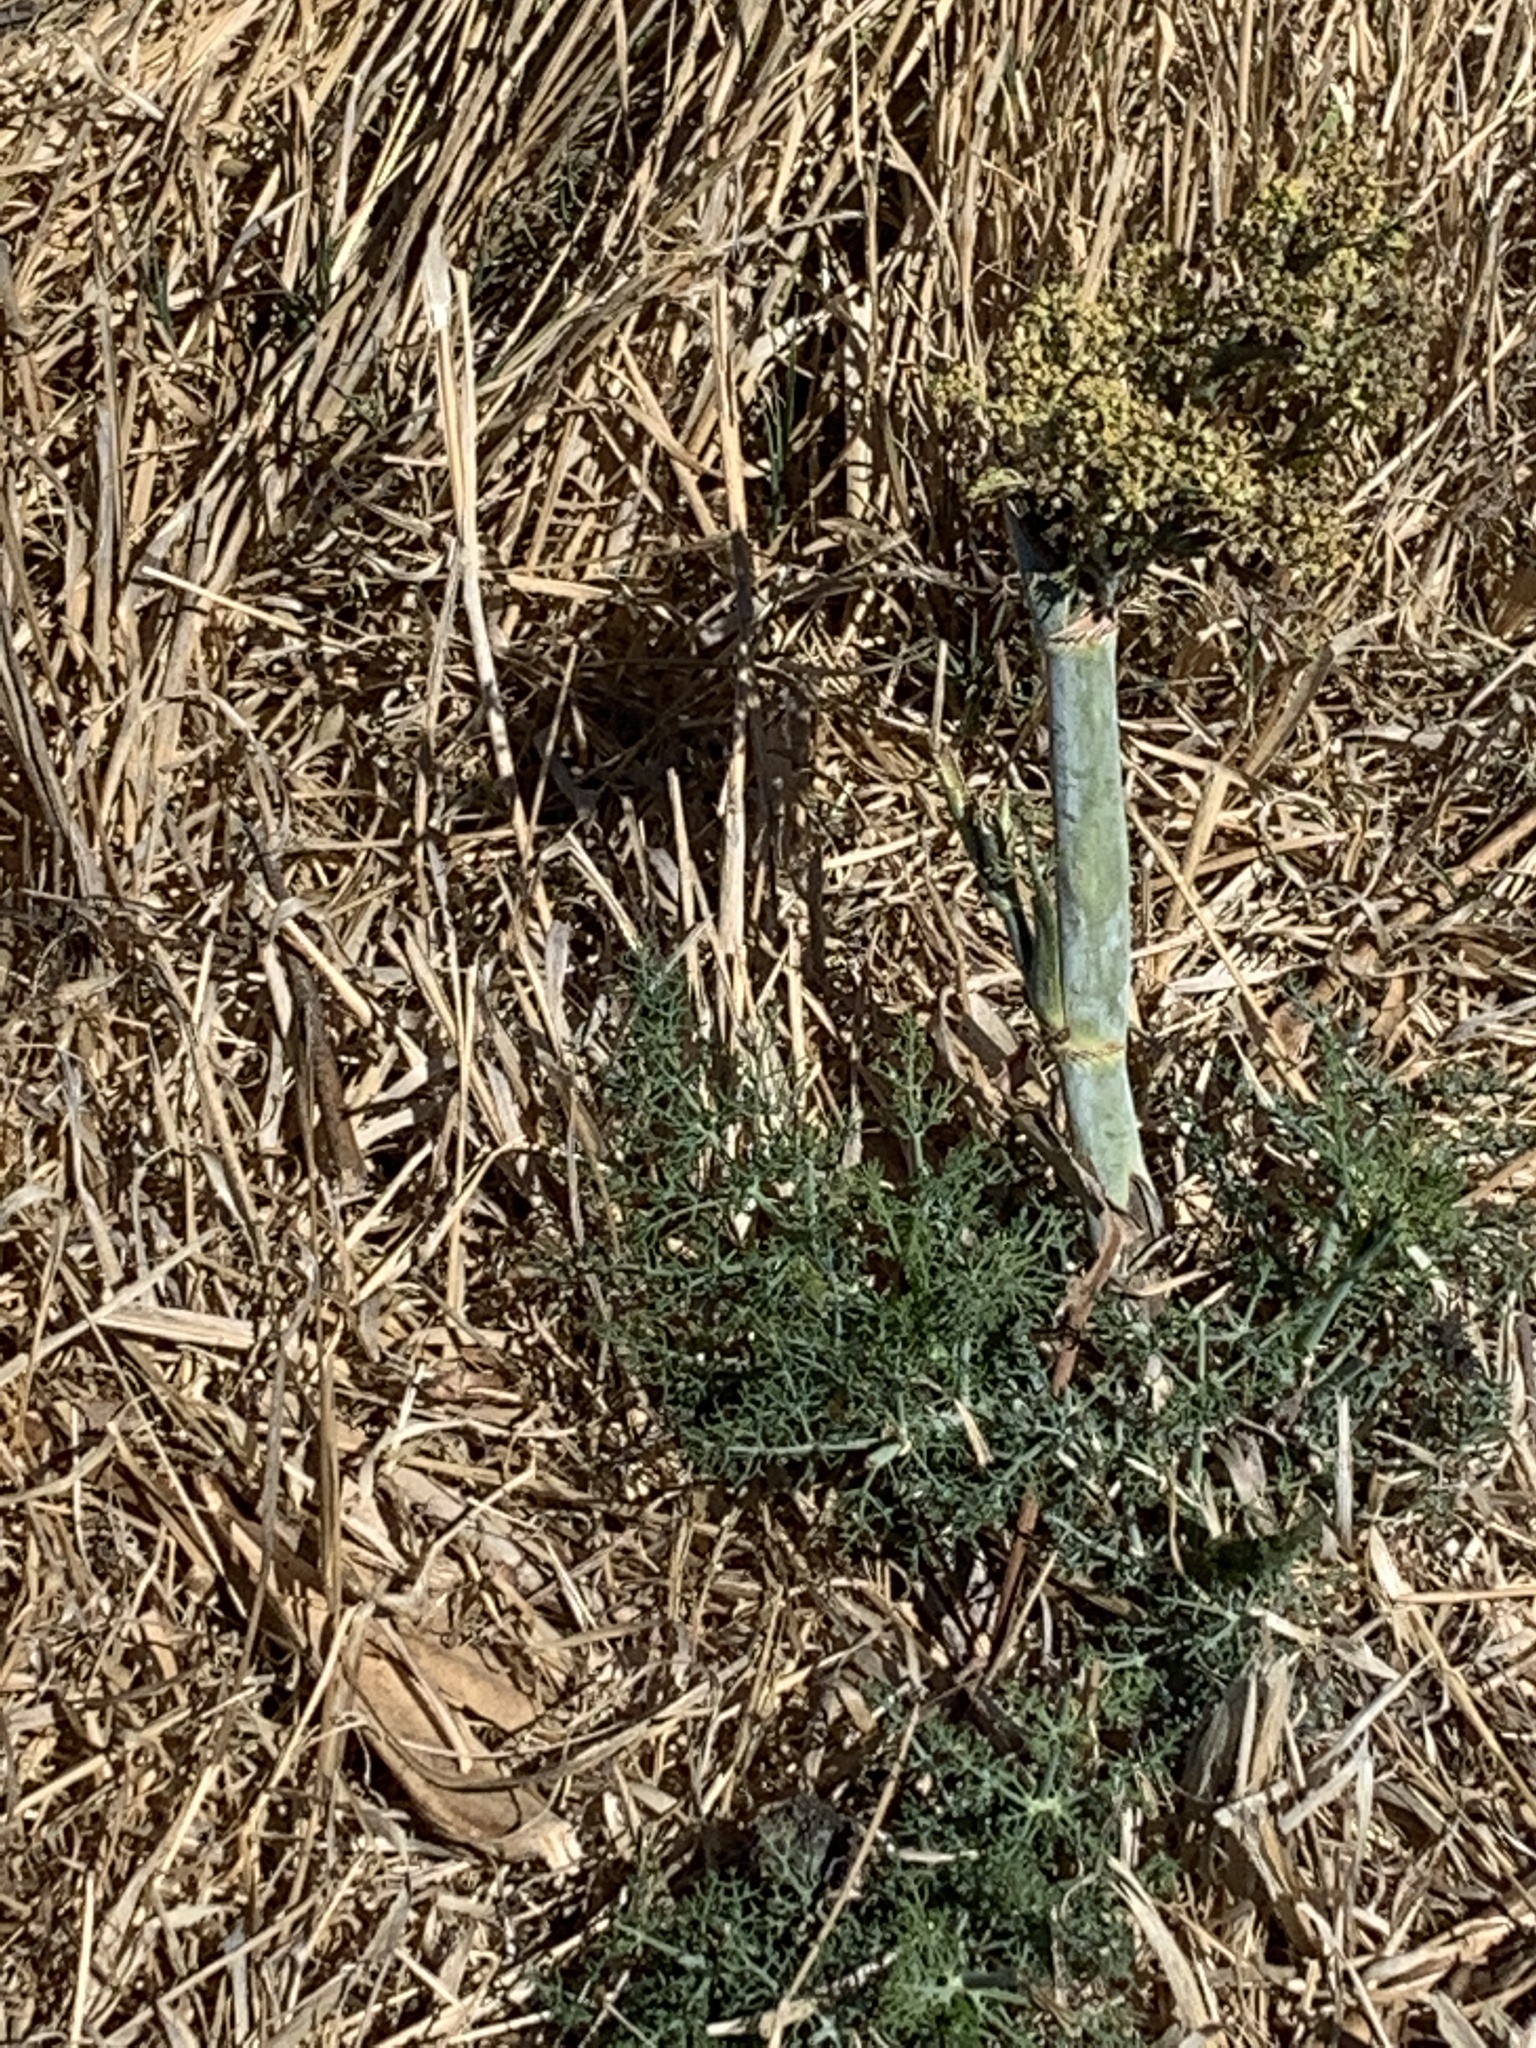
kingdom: Plantae
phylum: Tracheophyta
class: Magnoliopsida
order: Apiales
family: Apiaceae
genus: Foeniculum
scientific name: Foeniculum vulgare
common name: Fennel
